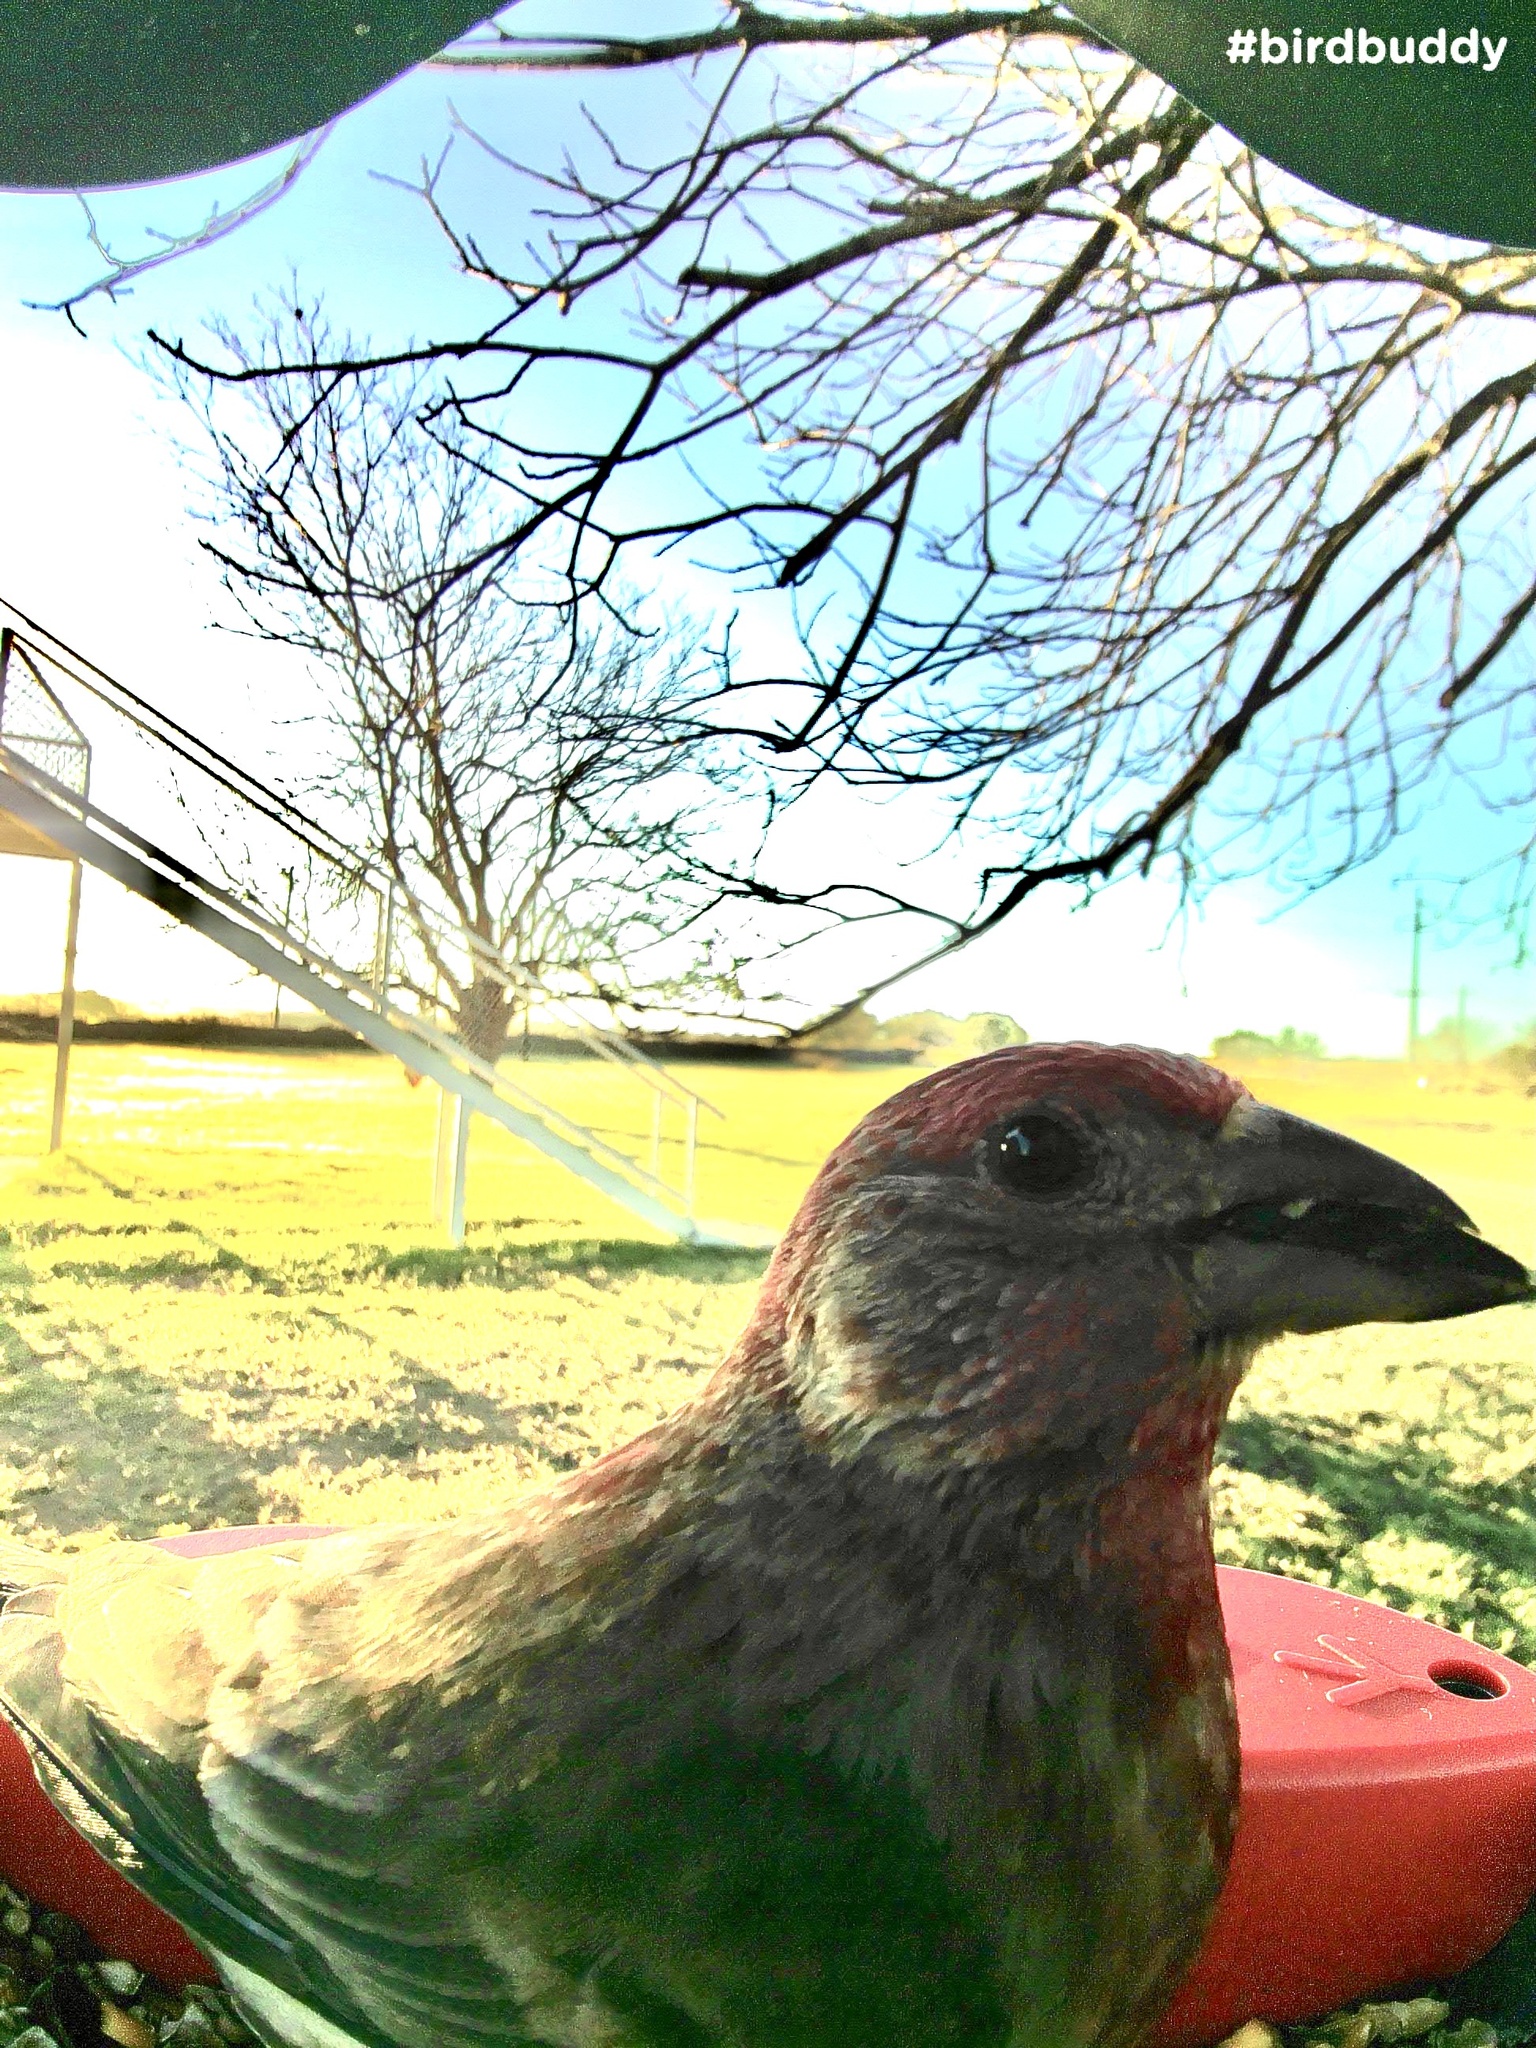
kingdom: Animalia
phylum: Chordata
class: Aves
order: Passeriformes
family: Fringillidae
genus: Haemorhous
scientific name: Haemorhous mexicanus
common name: House finch
